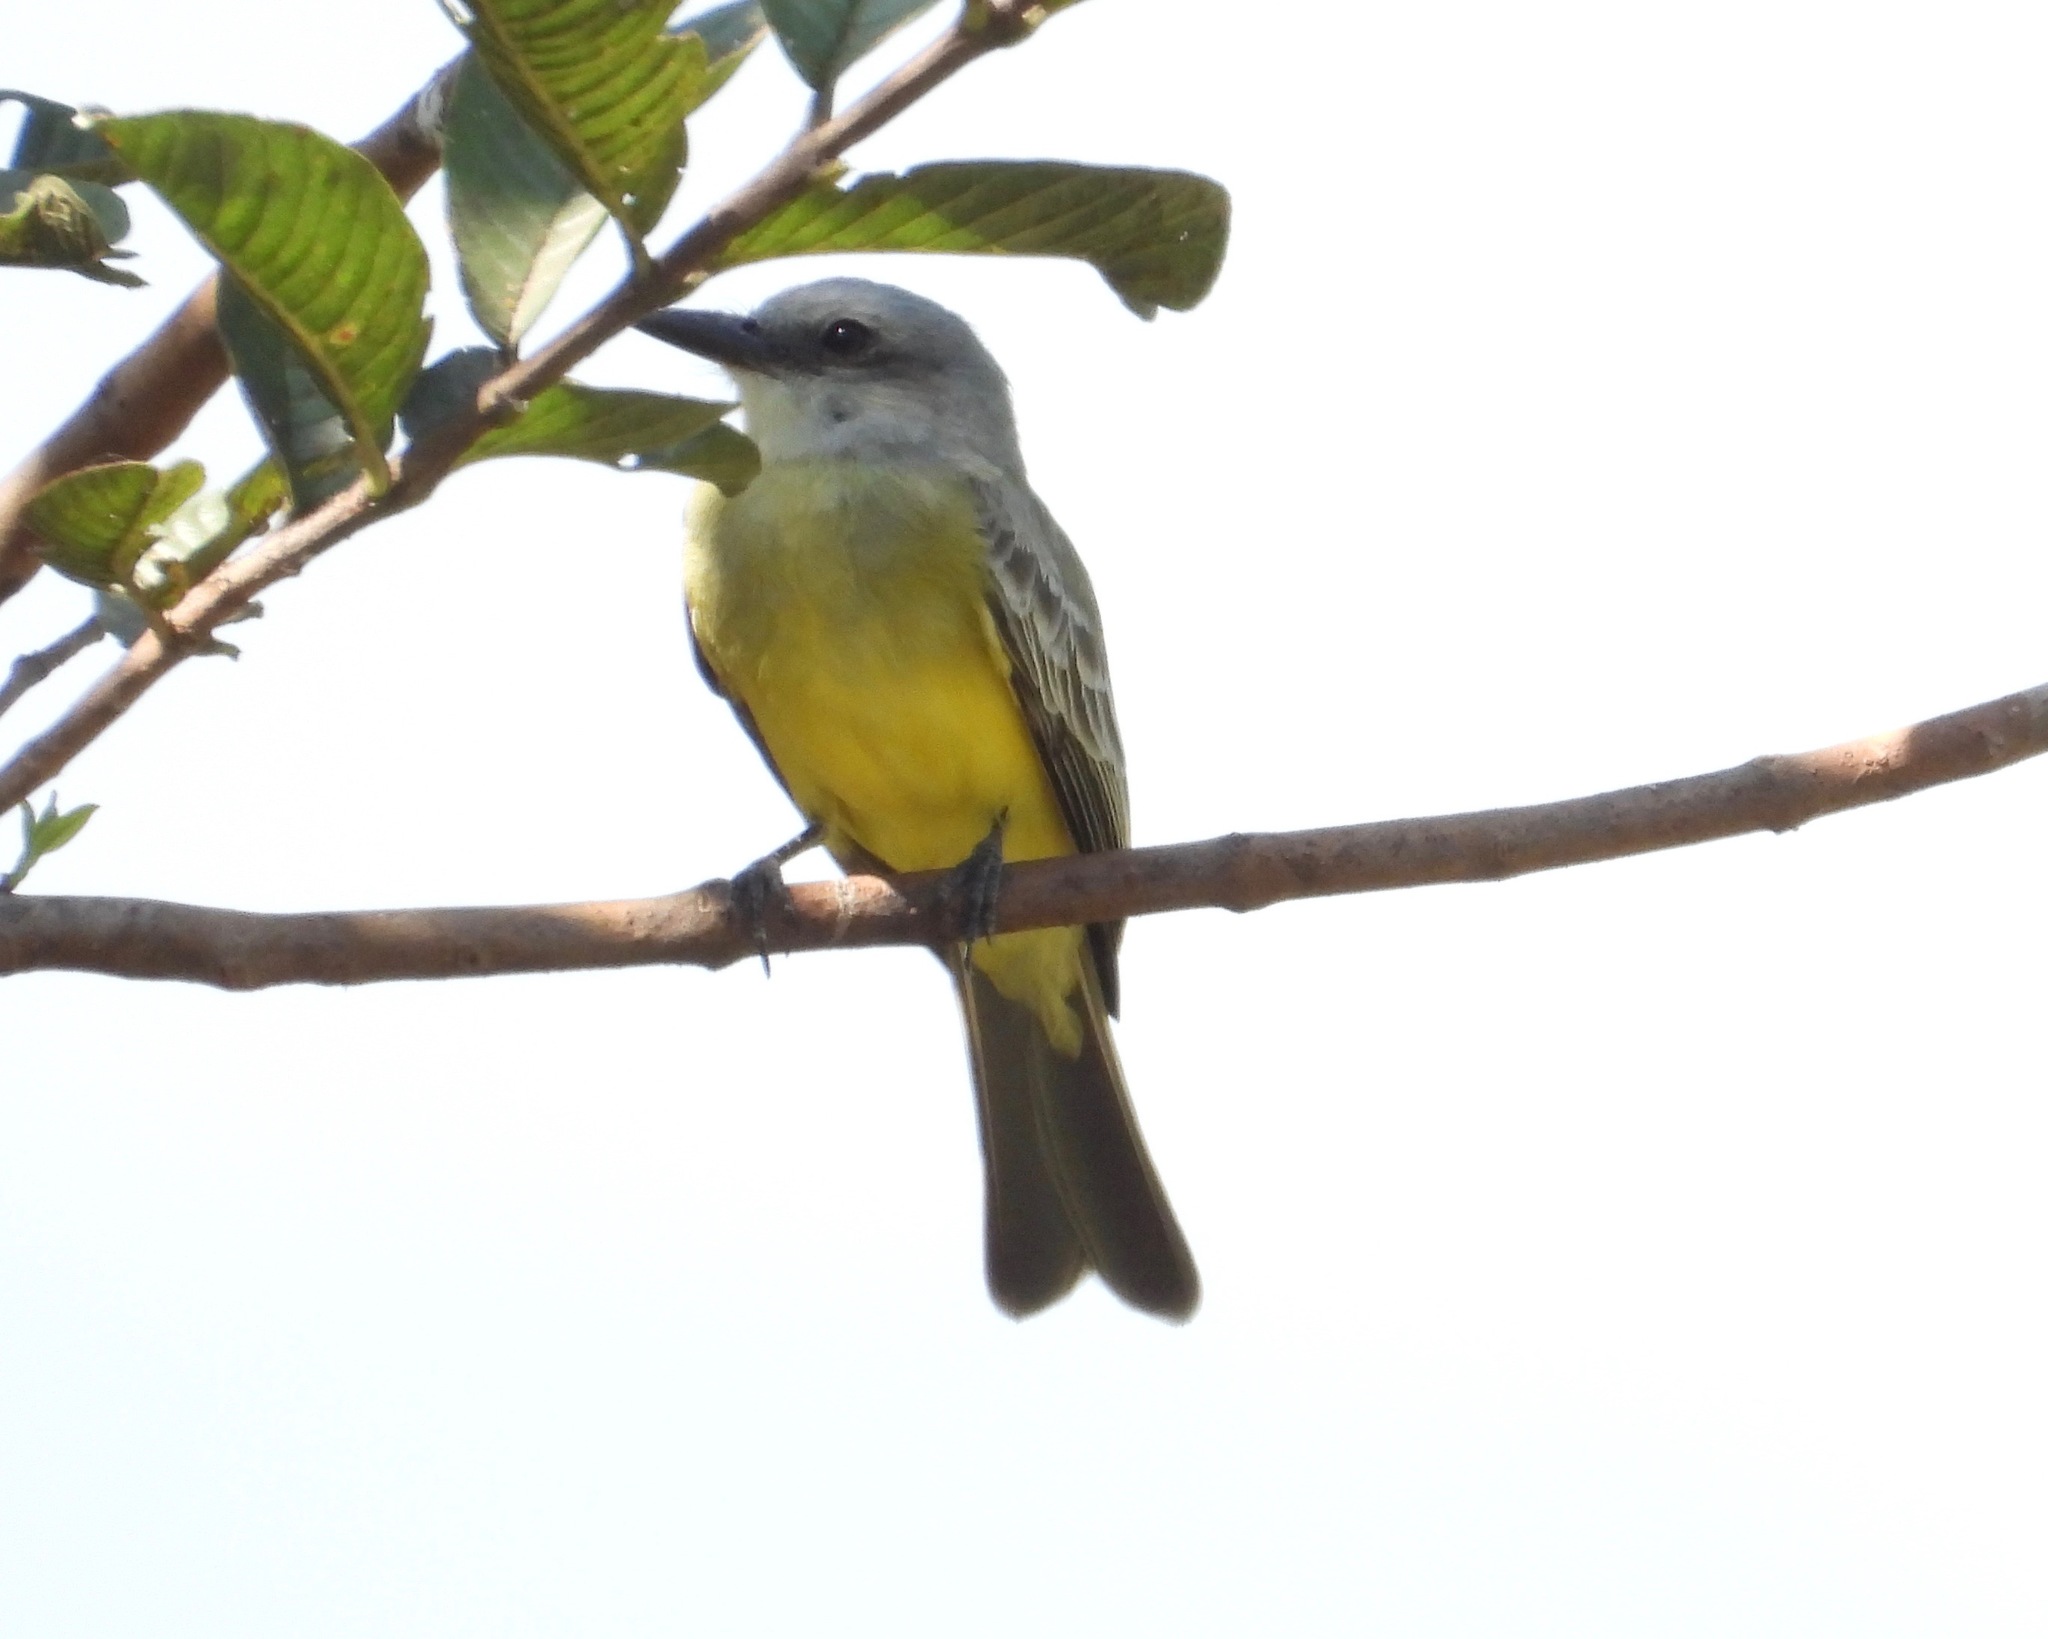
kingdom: Animalia
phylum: Chordata
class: Aves
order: Passeriformes
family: Tyrannidae
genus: Tyrannus
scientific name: Tyrannus melancholicus
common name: Tropical kingbird
